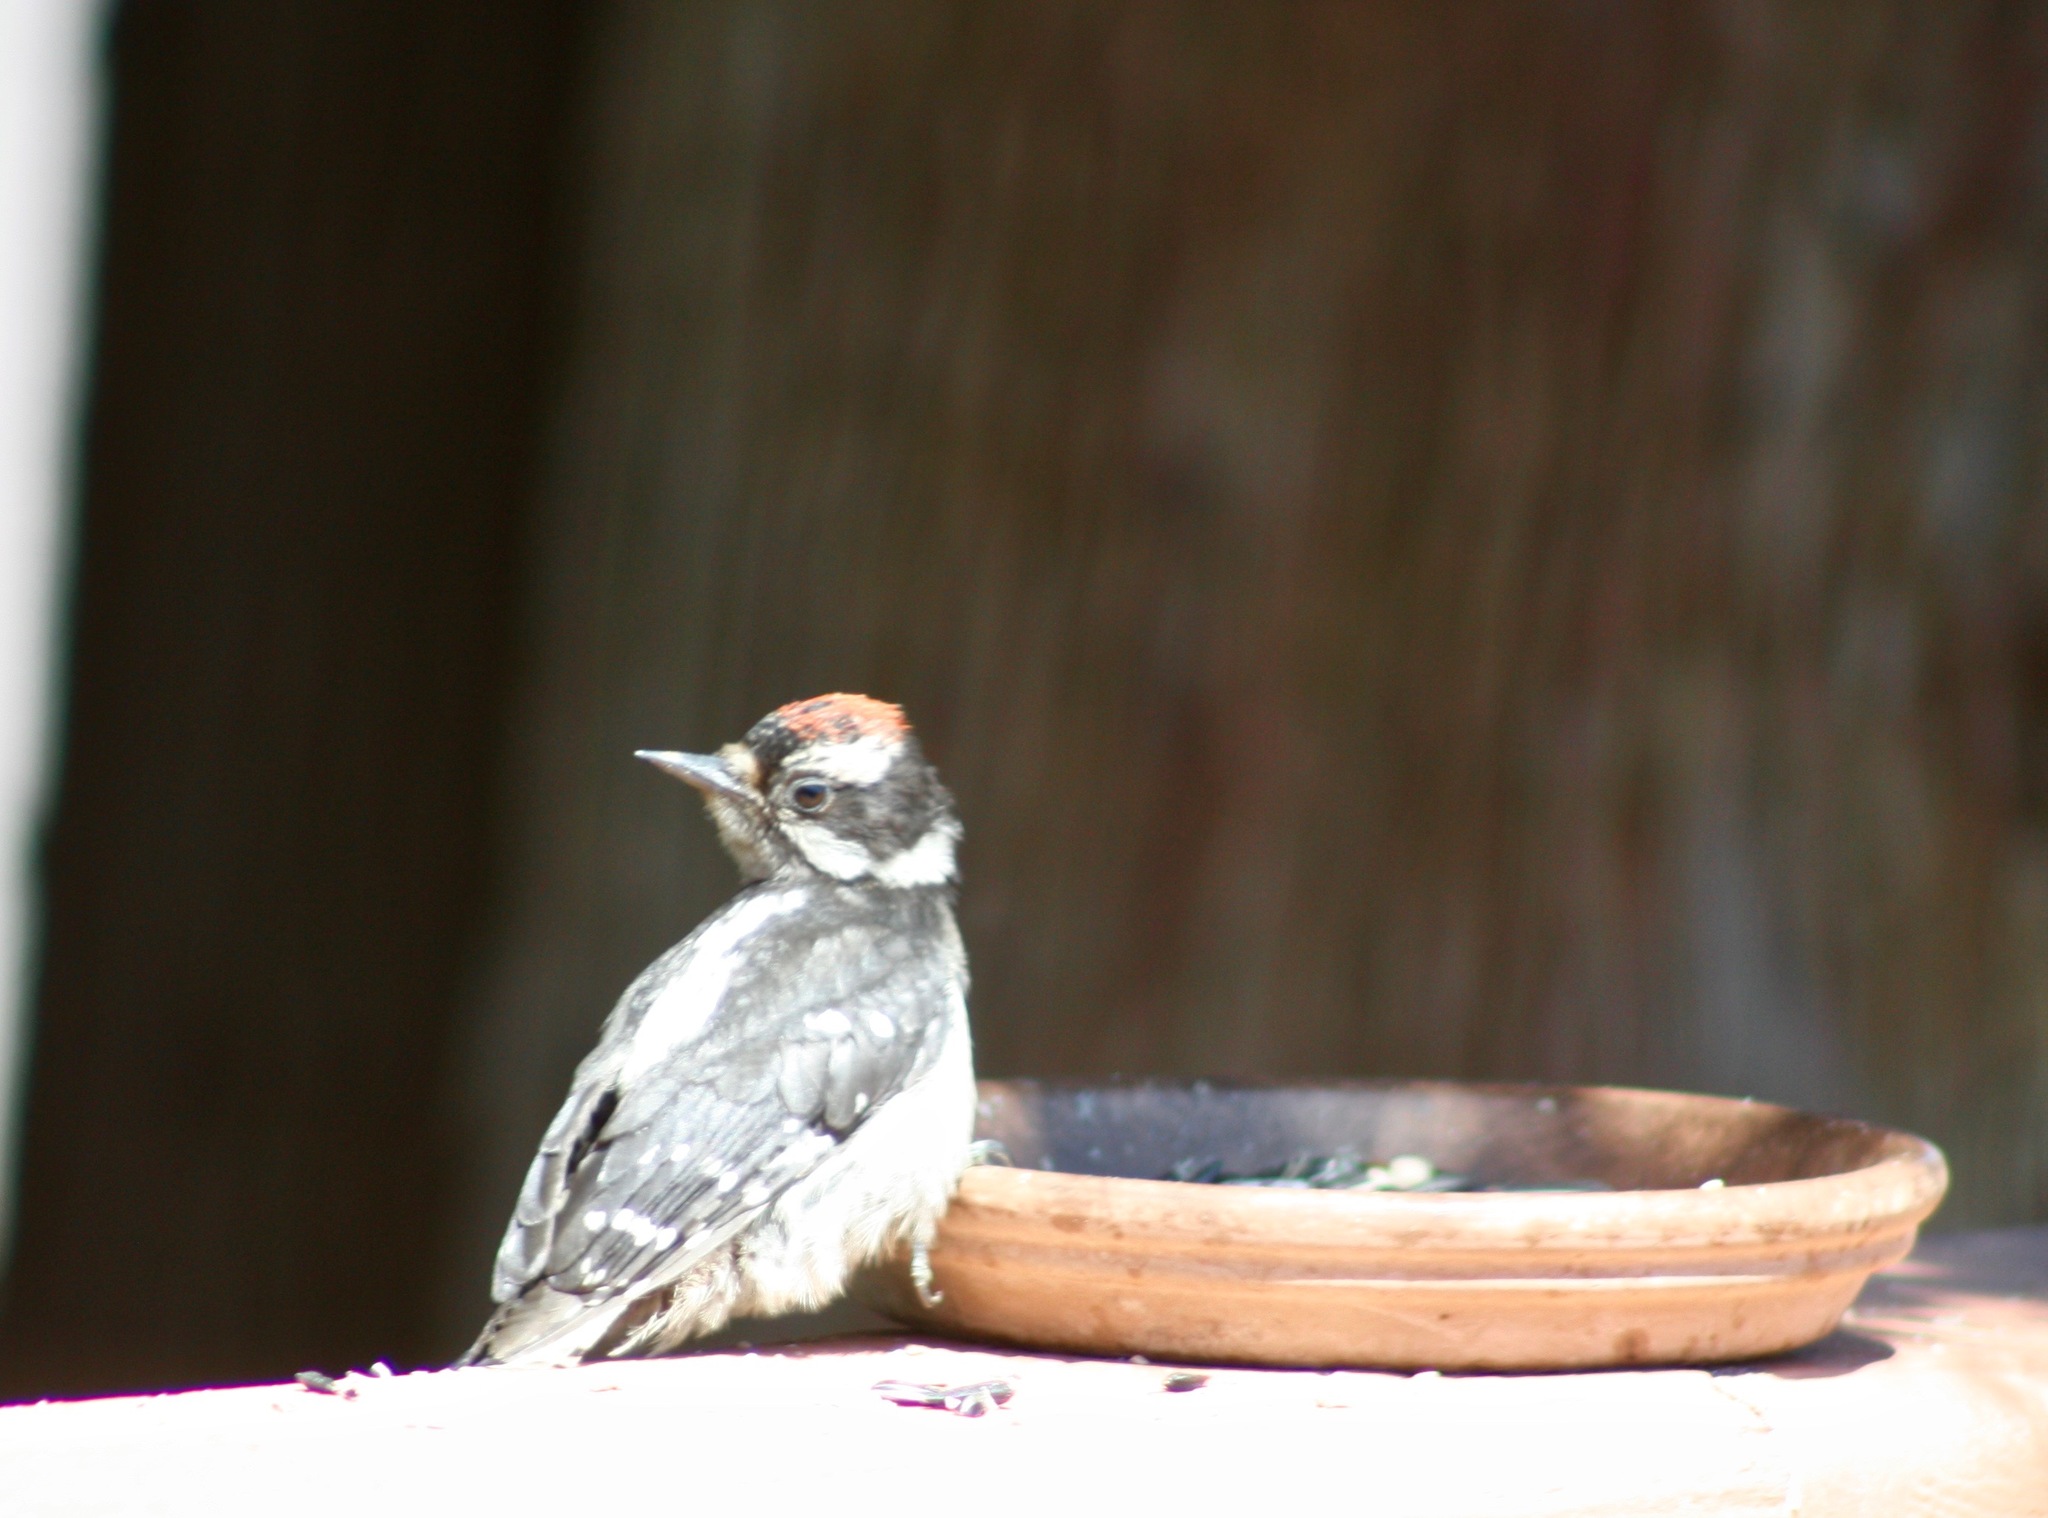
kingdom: Animalia
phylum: Chordata
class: Aves
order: Piciformes
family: Picidae
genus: Dryobates
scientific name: Dryobates pubescens
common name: Downy woodpecker
